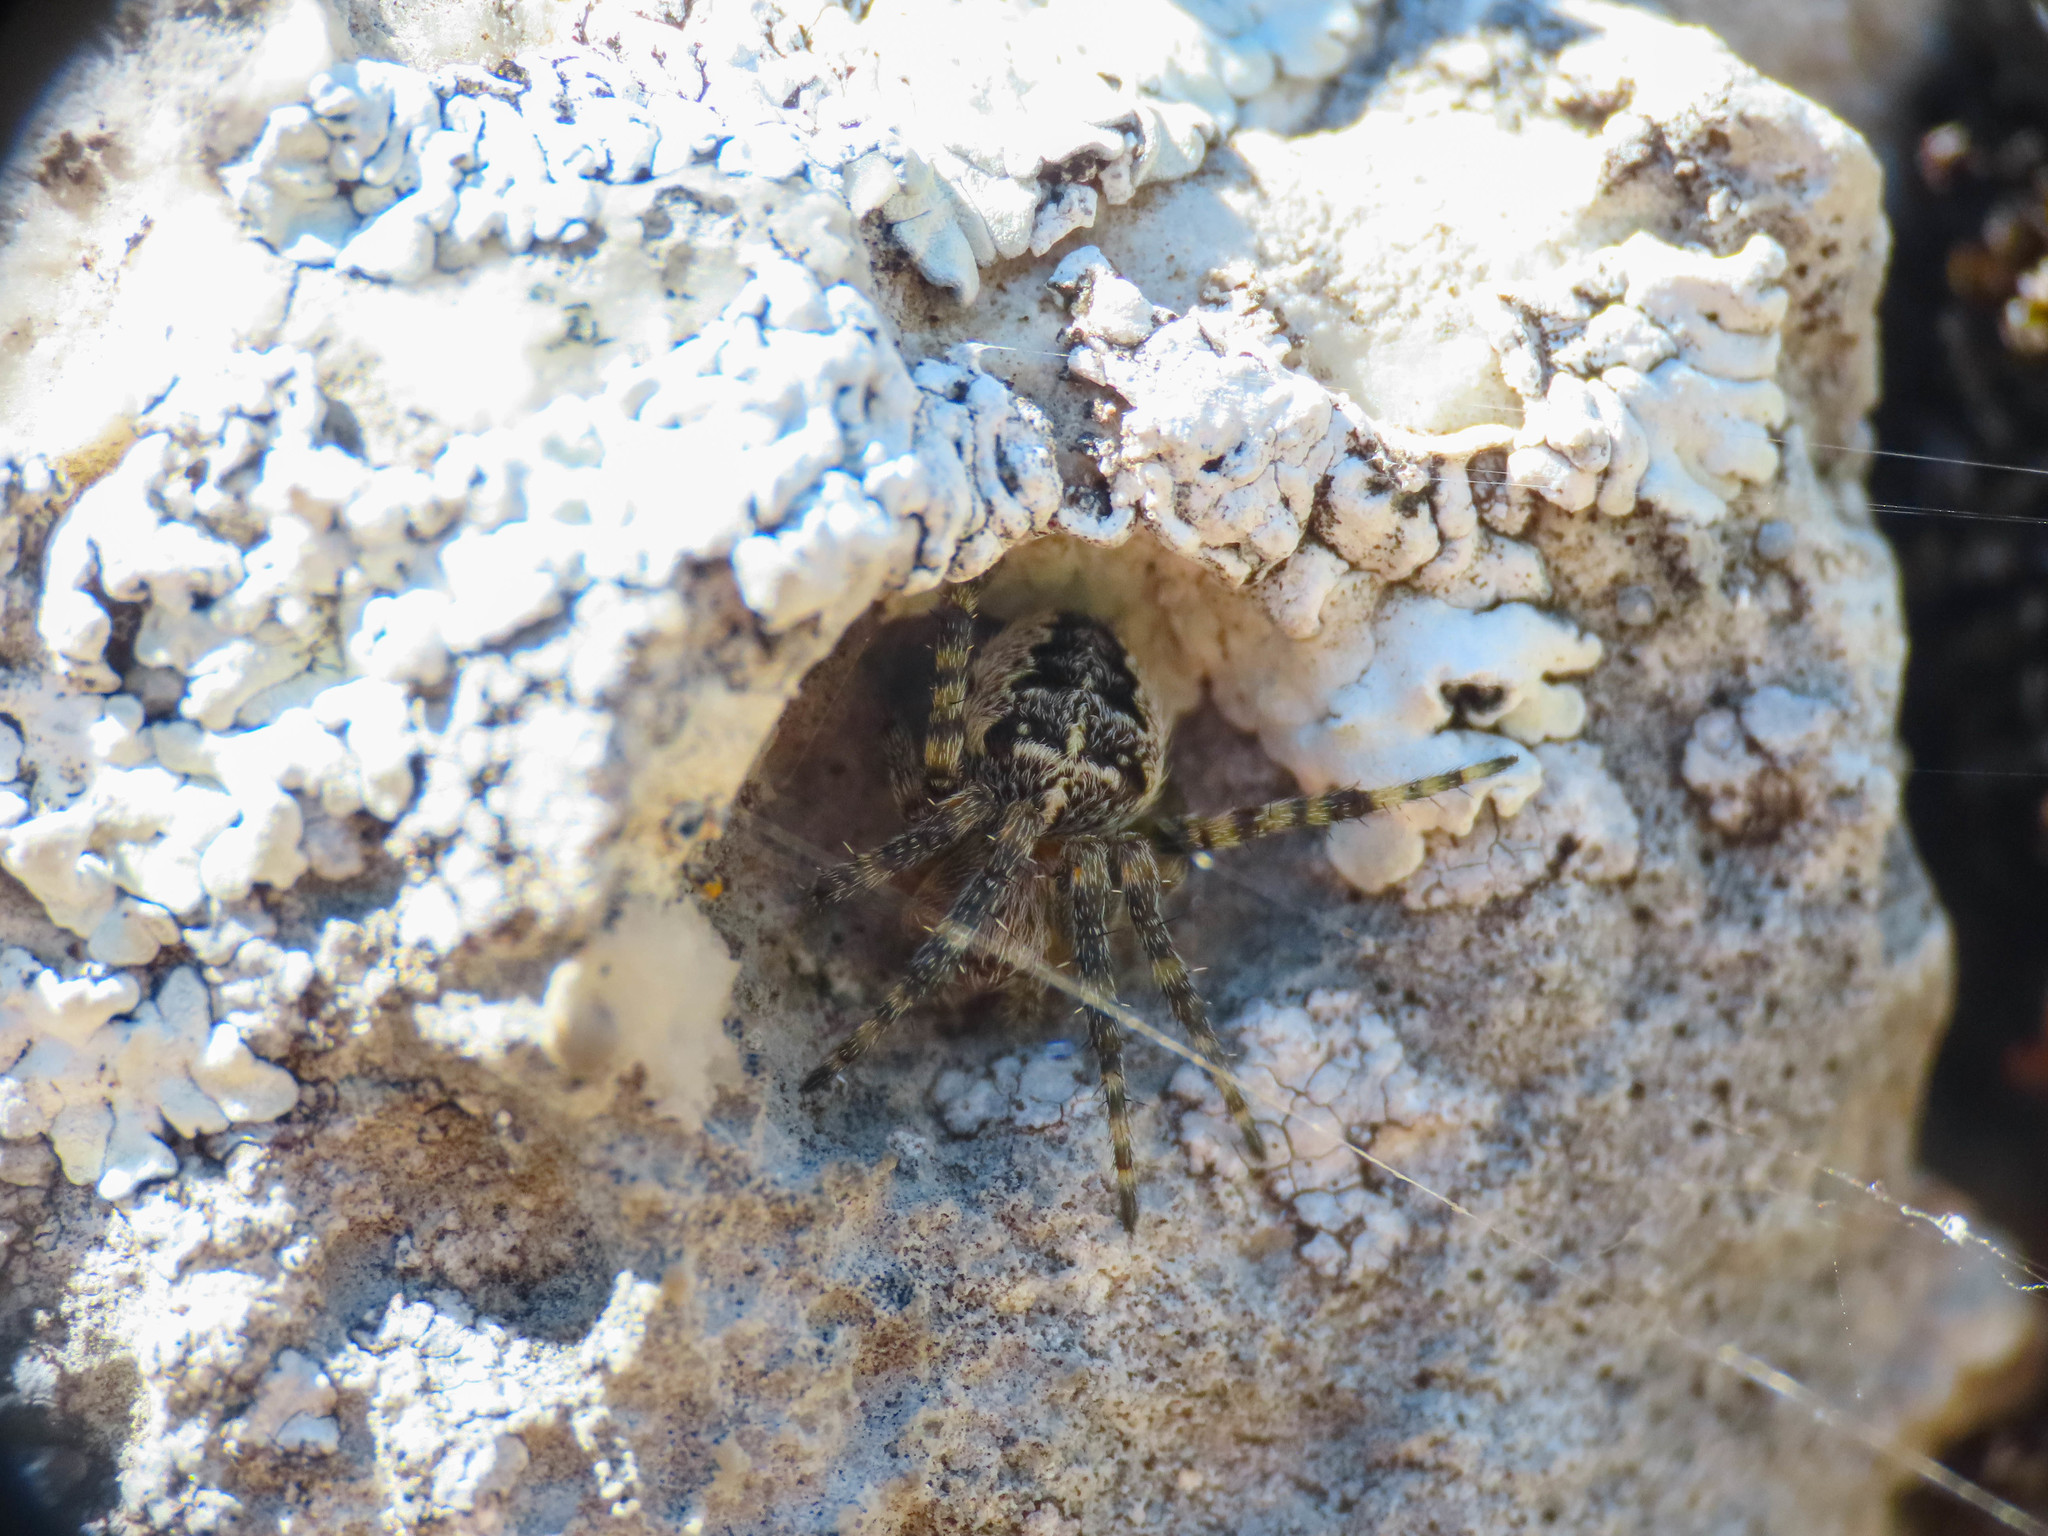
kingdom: Animalia
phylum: Arthropoda
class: Arachnida
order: Araneae
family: Araneidae
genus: Araneus
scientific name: Araneus diadematus
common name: Cross orbweaver
